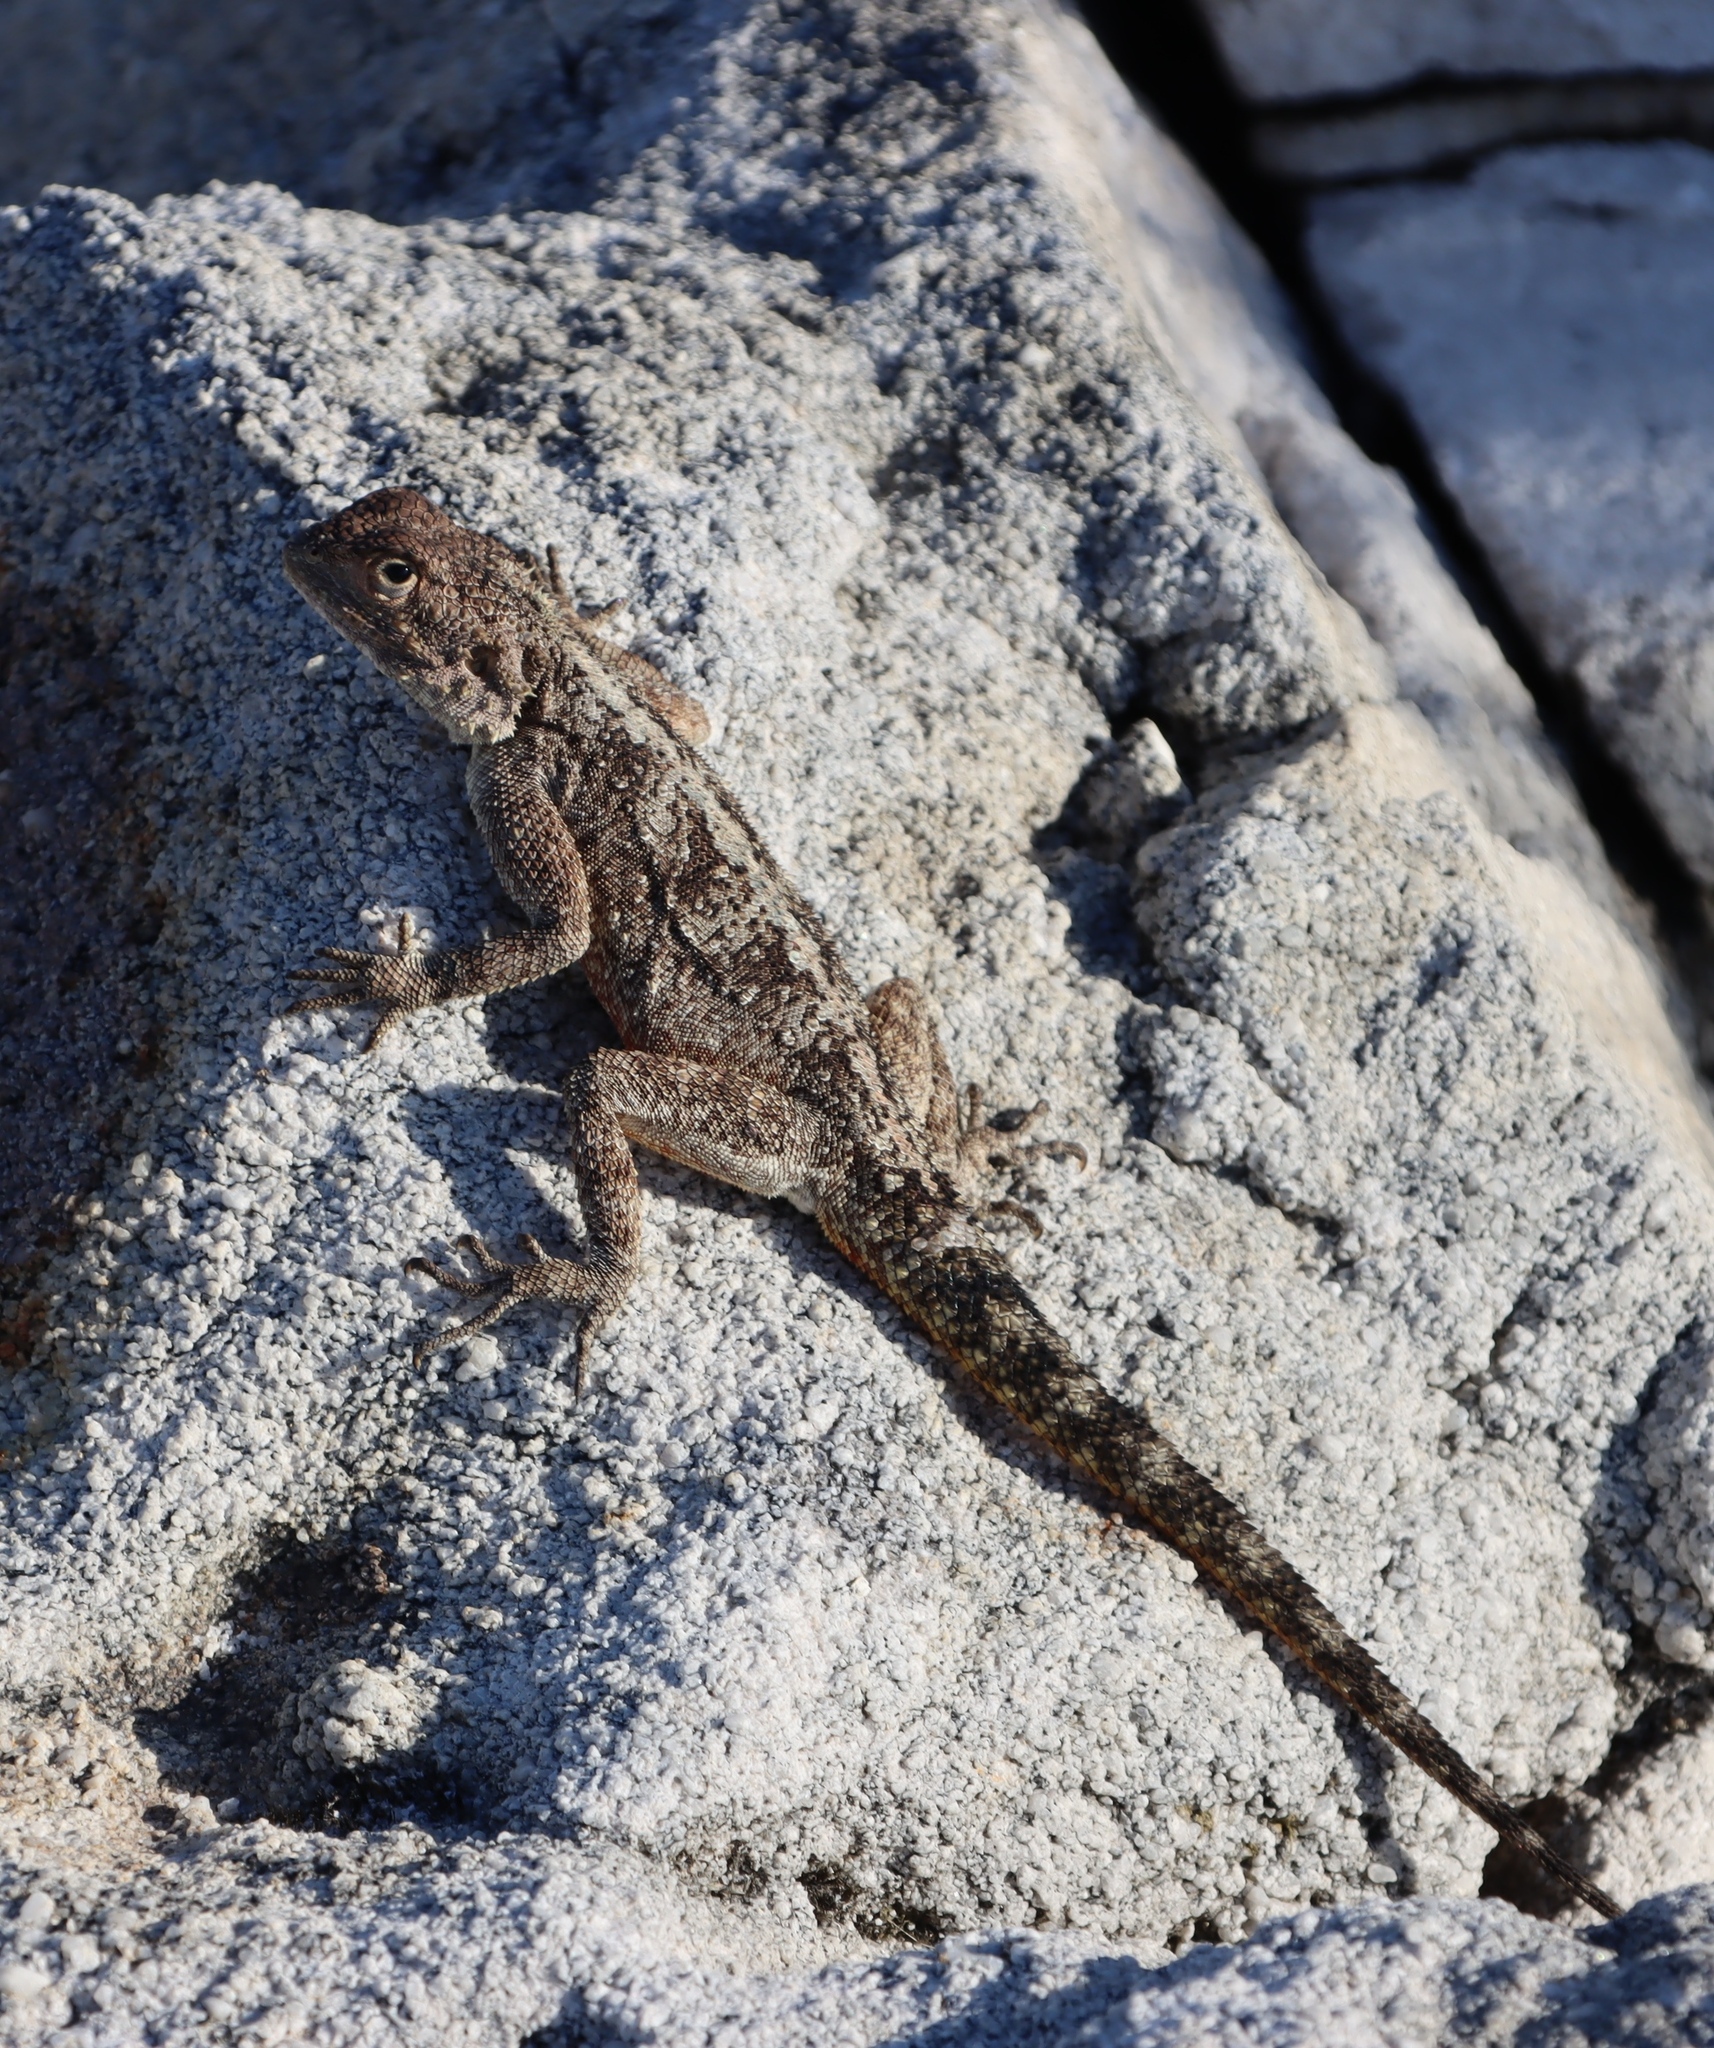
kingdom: Animalia
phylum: Chordata
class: Squamata
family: Agamidae
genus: Agama
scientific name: Agama atra
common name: Southern african rock agama
